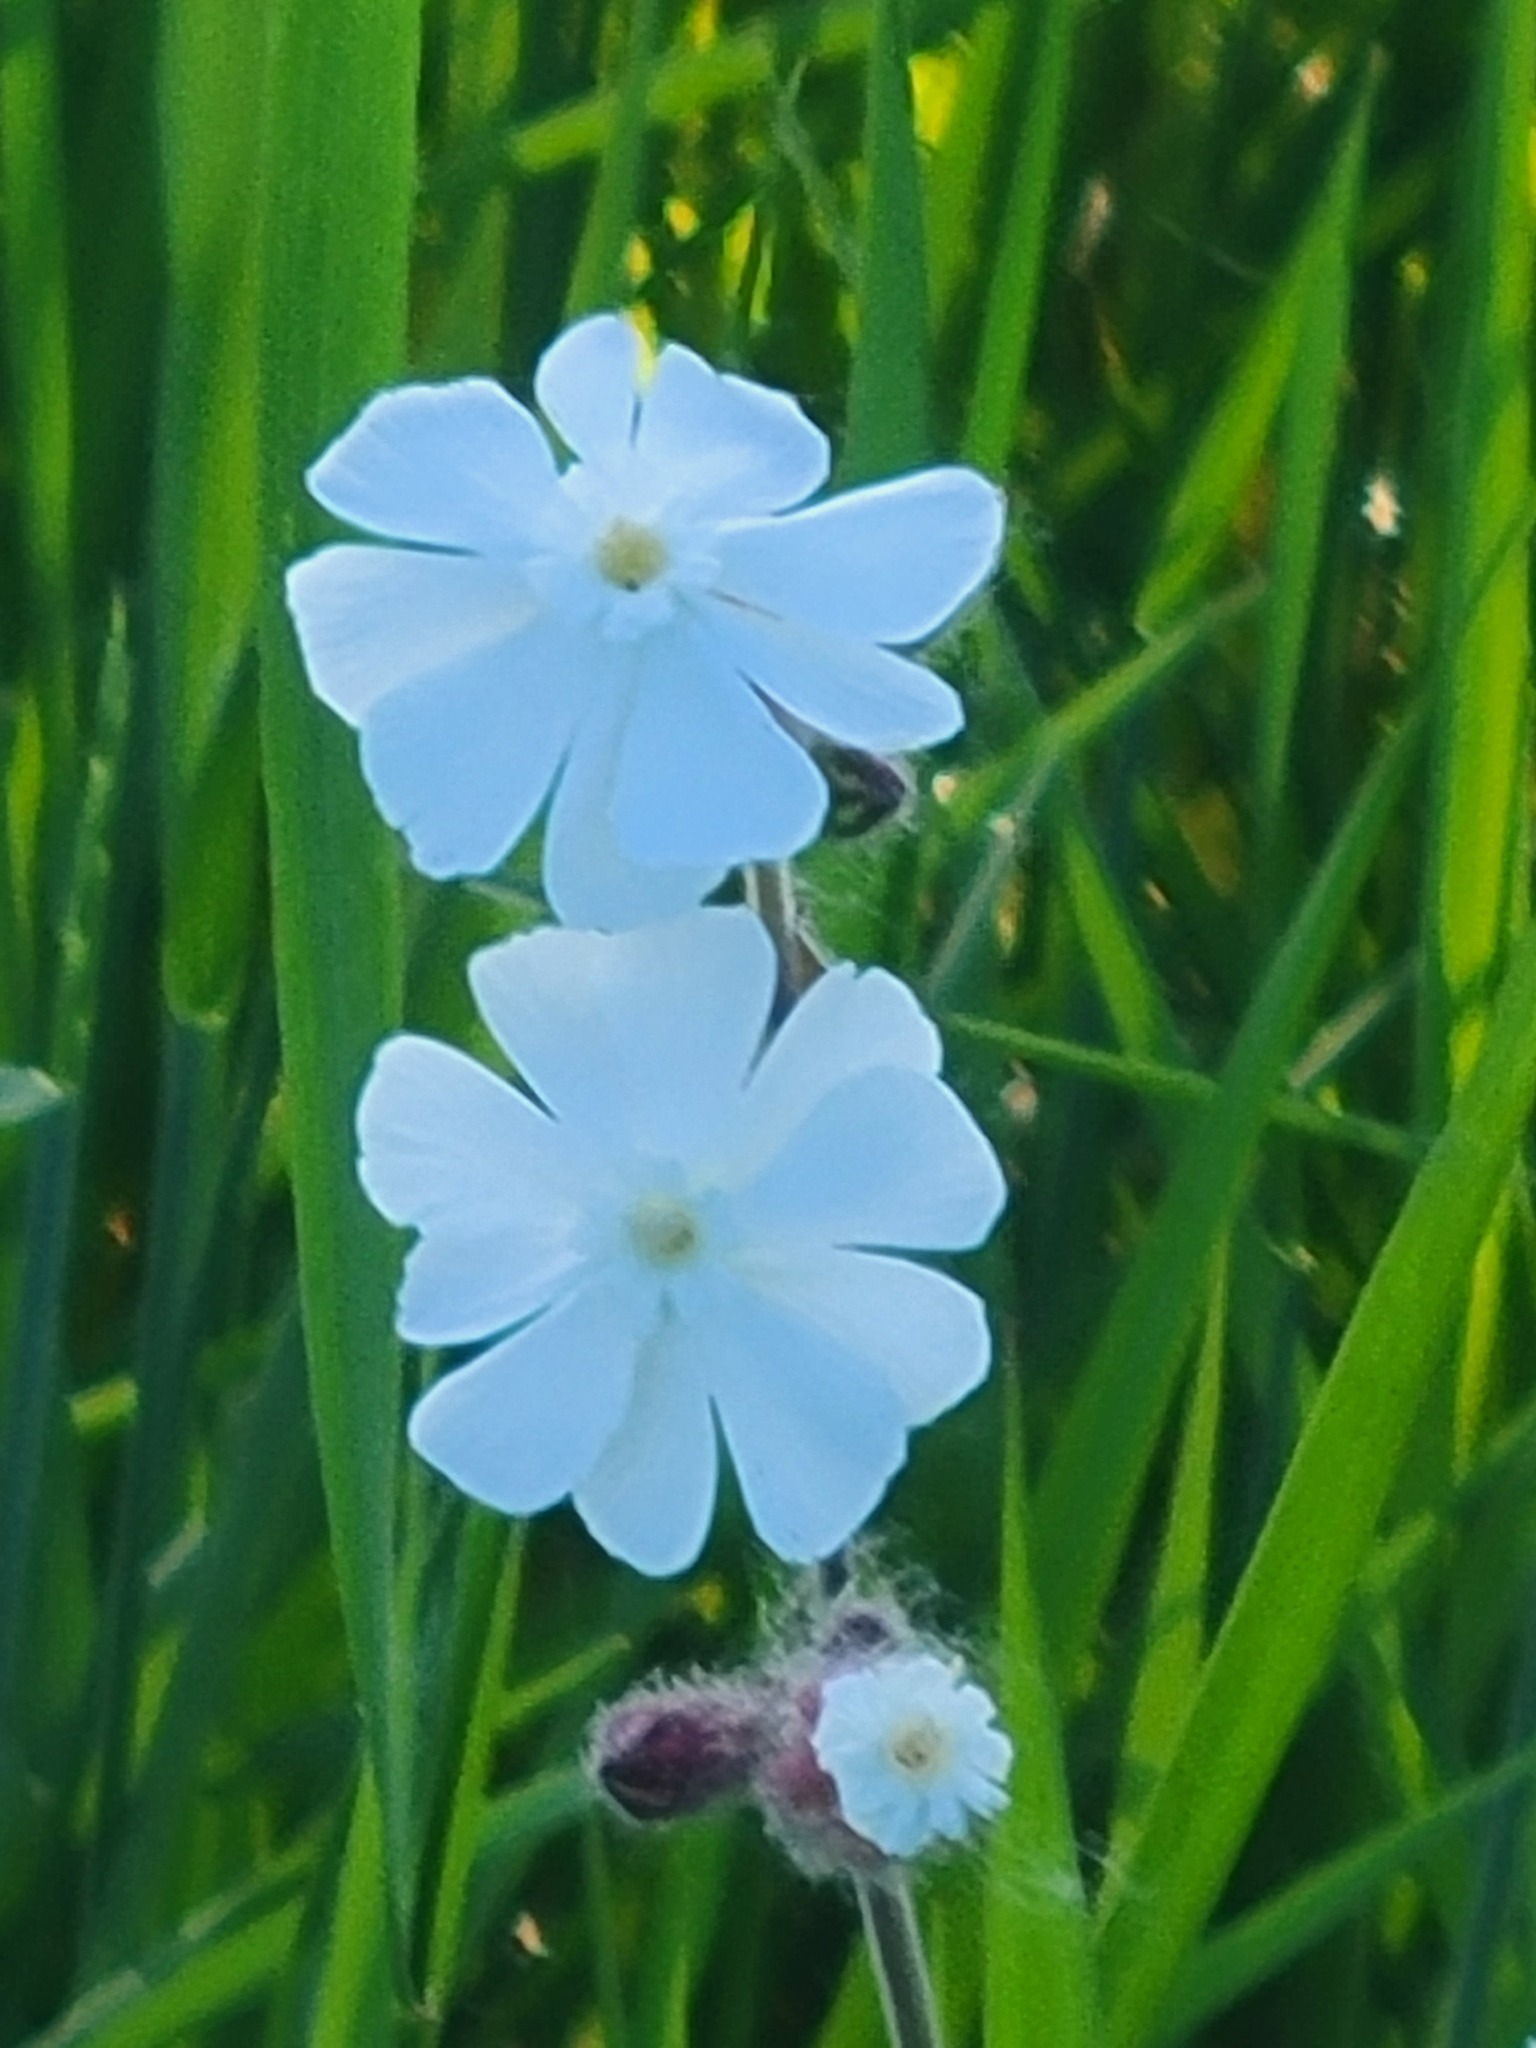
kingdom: Plantae
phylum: Tracheophyta
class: Magnoliopsida
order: Caryophyllales
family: Caryophyllaceae
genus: Silene
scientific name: Silene latifolia
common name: White campion
